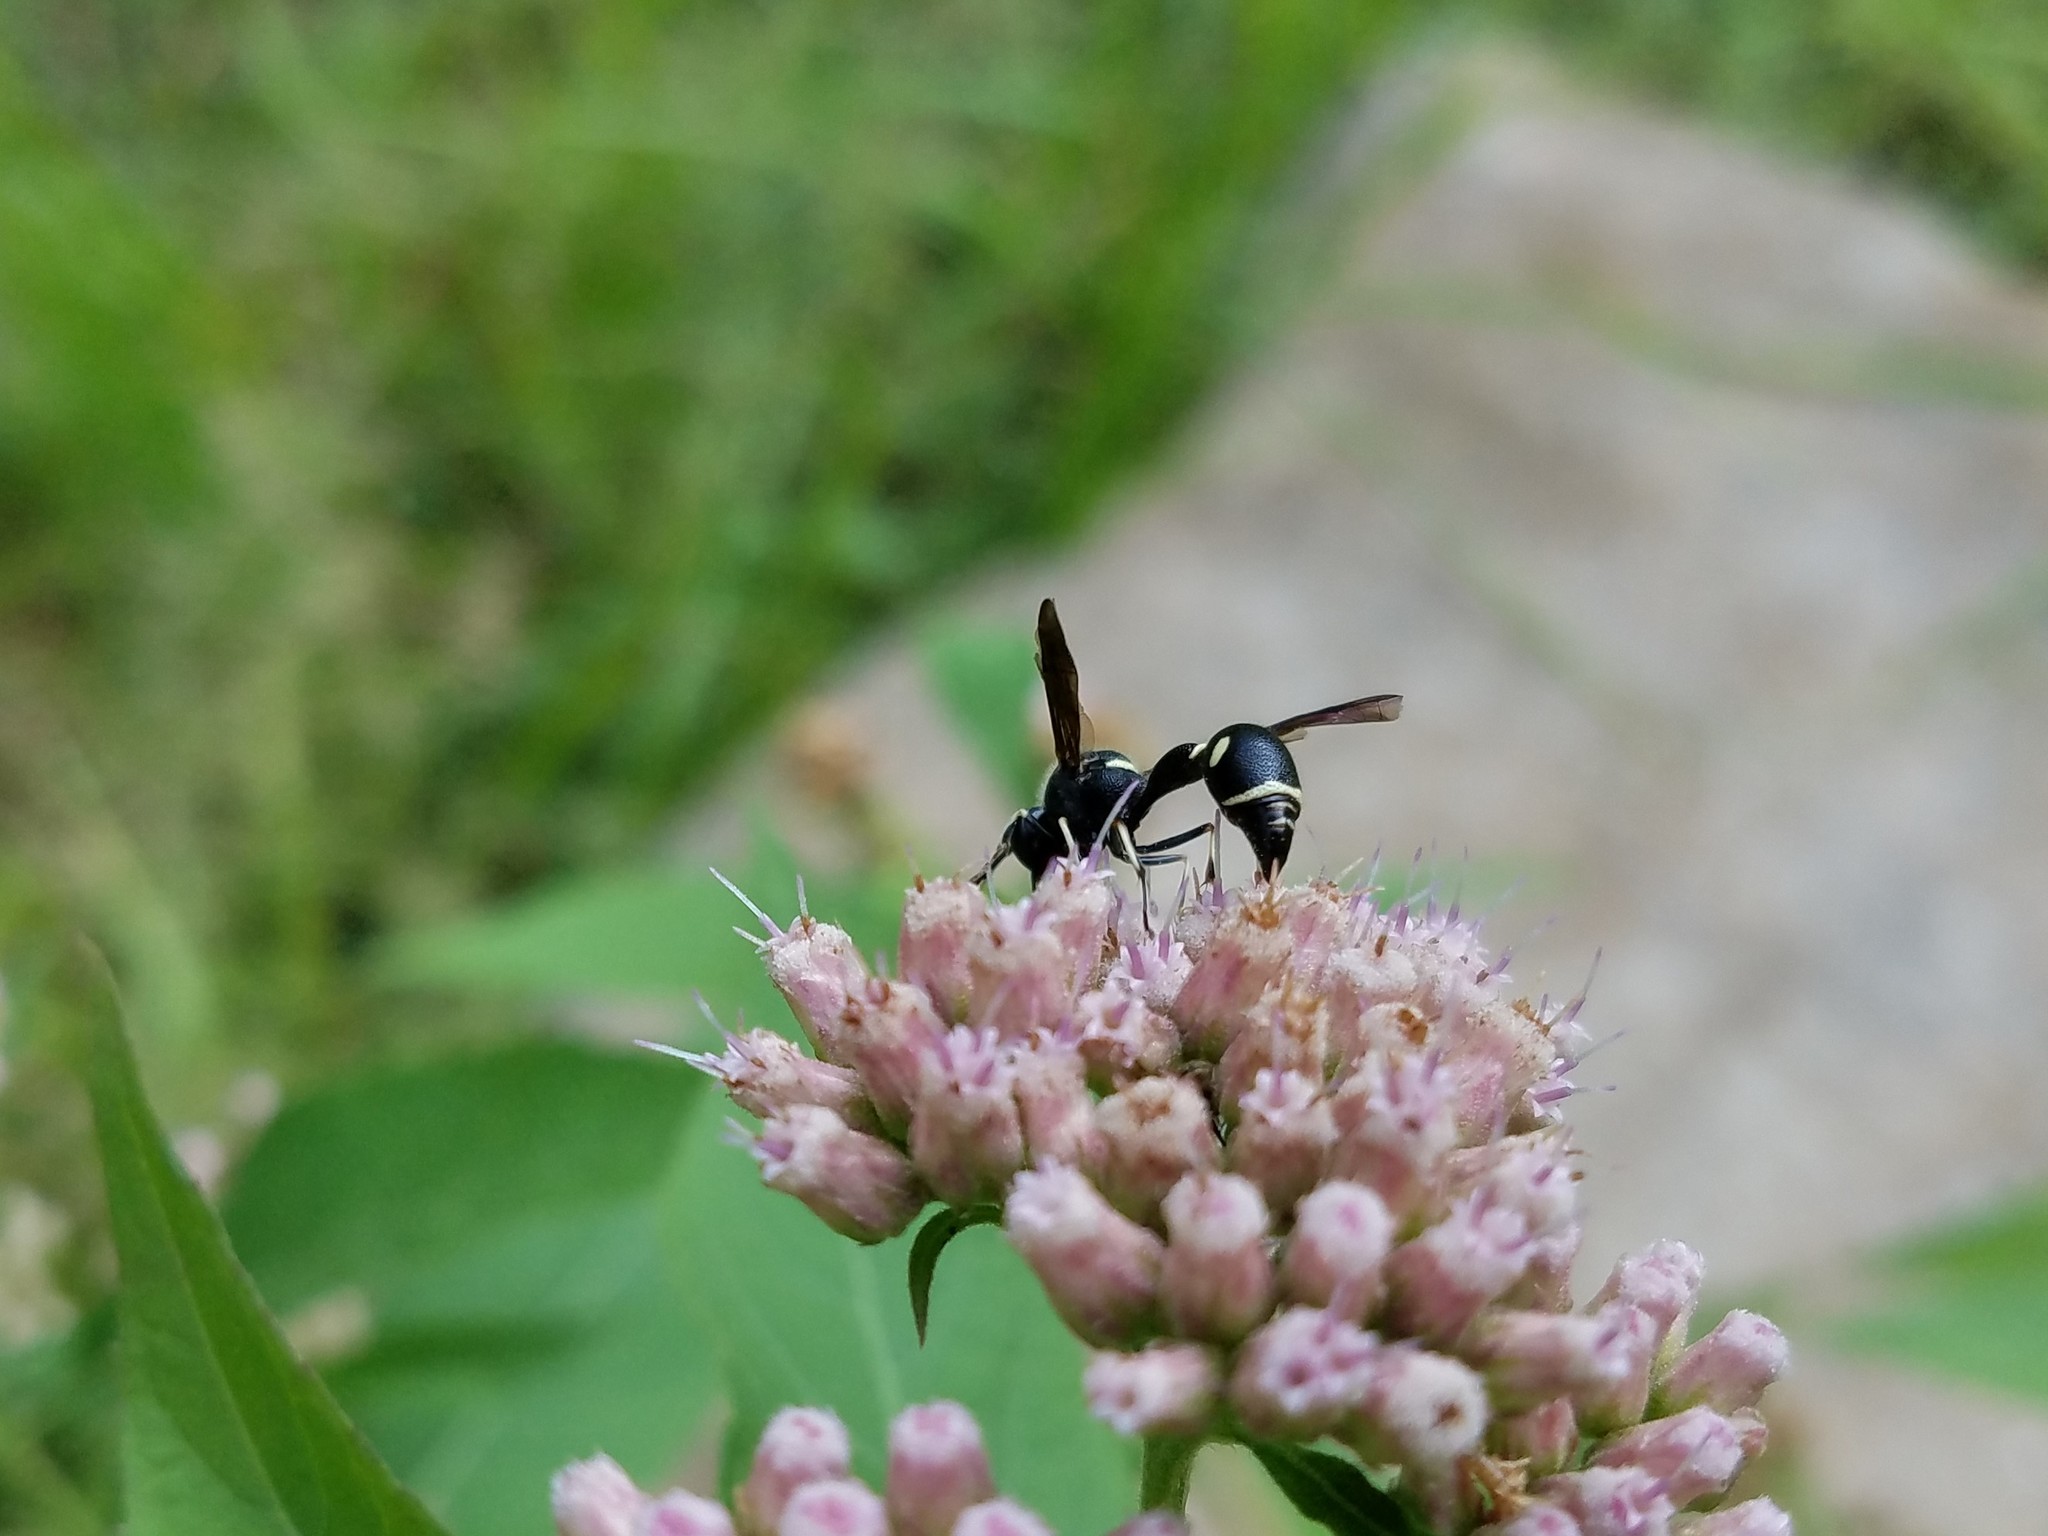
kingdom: Animalia
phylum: Arthropoda
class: Insecta
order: Hymenoptera
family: Vespidae
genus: Eumenes
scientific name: Eumenes fraternus
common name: Fraternal potter wasp
